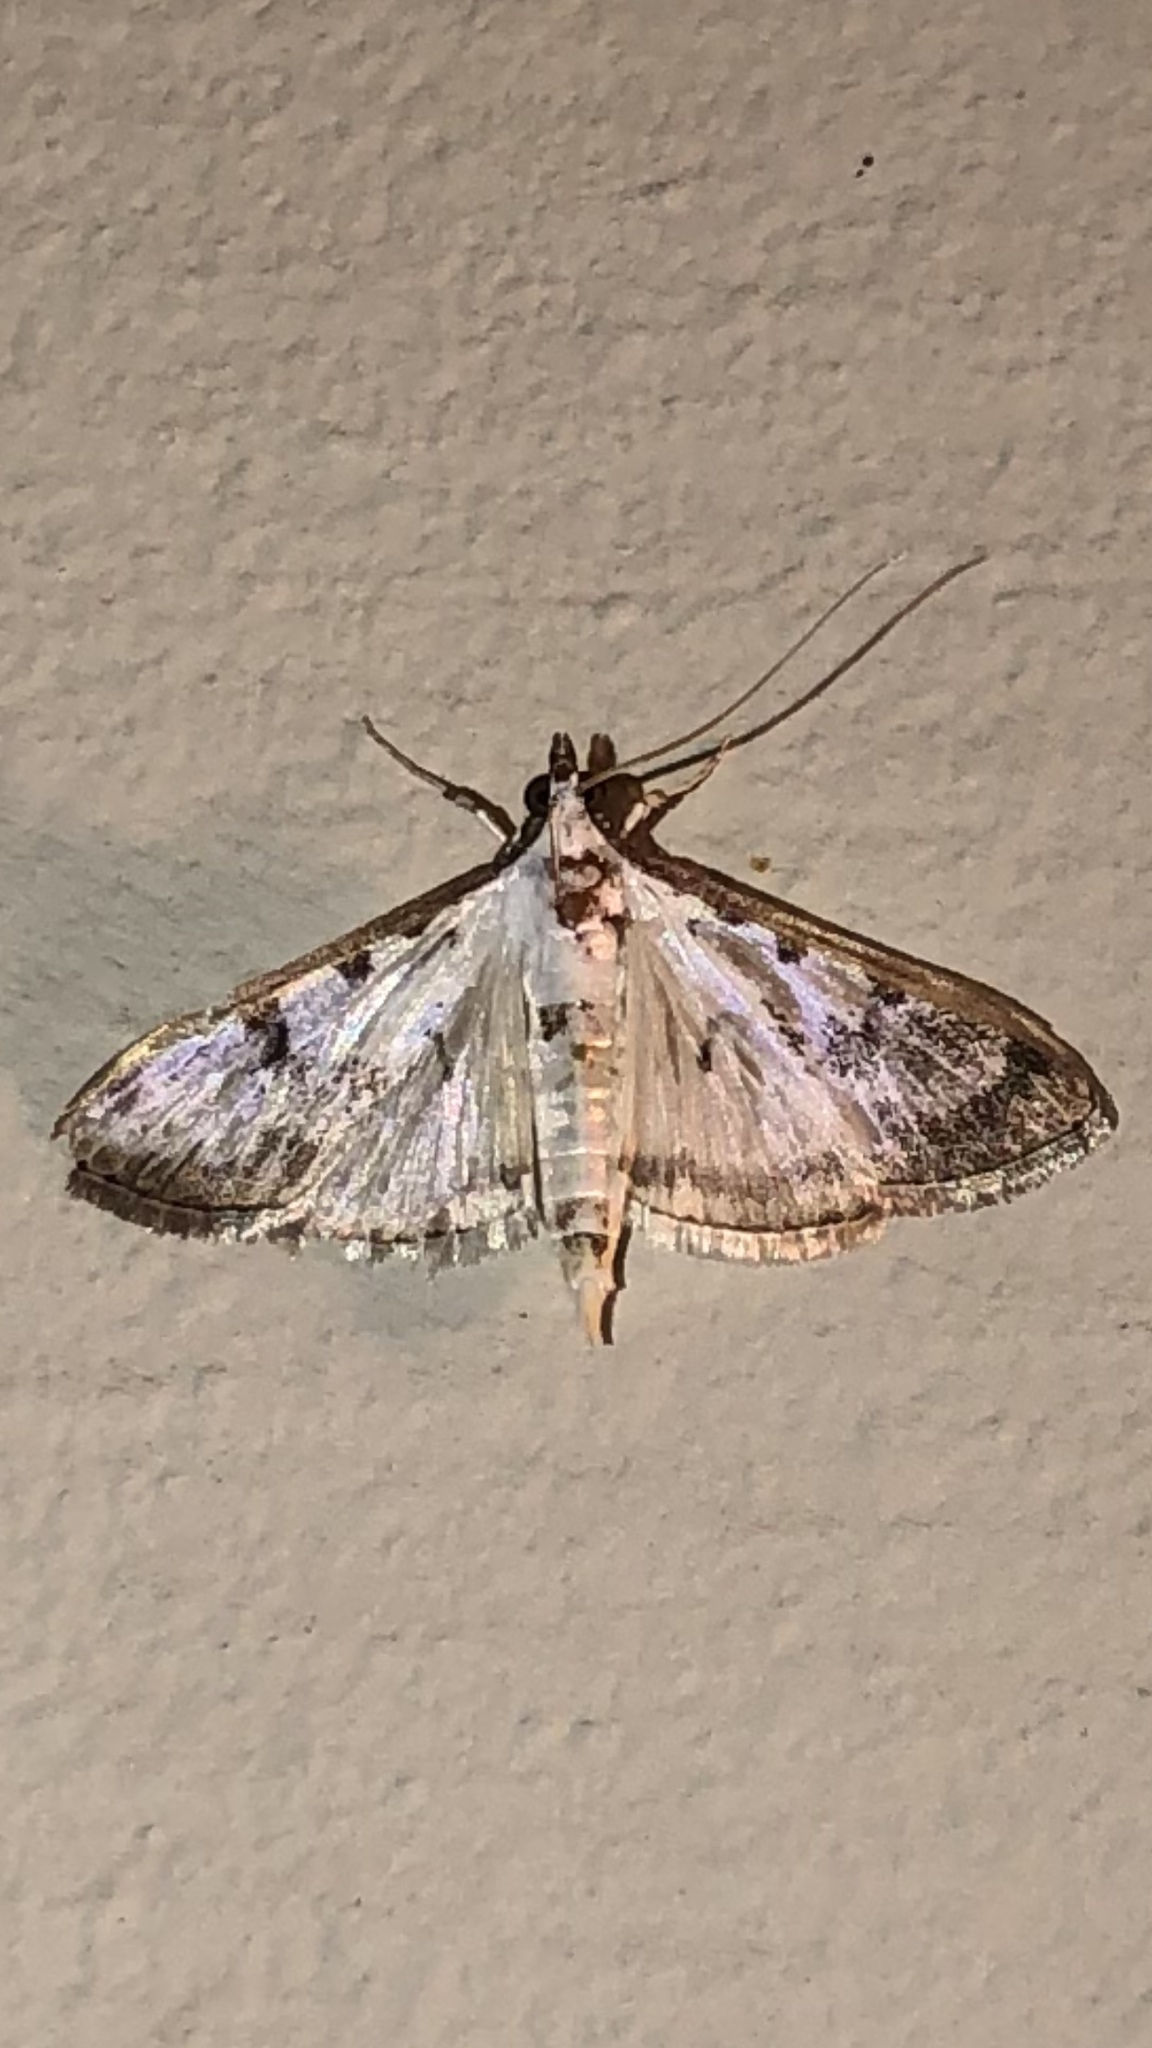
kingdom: Animalia
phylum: Arthropoda
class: Insecta
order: Lepidoptera
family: Crambidae
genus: Palpita
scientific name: Palpita gracilalis
